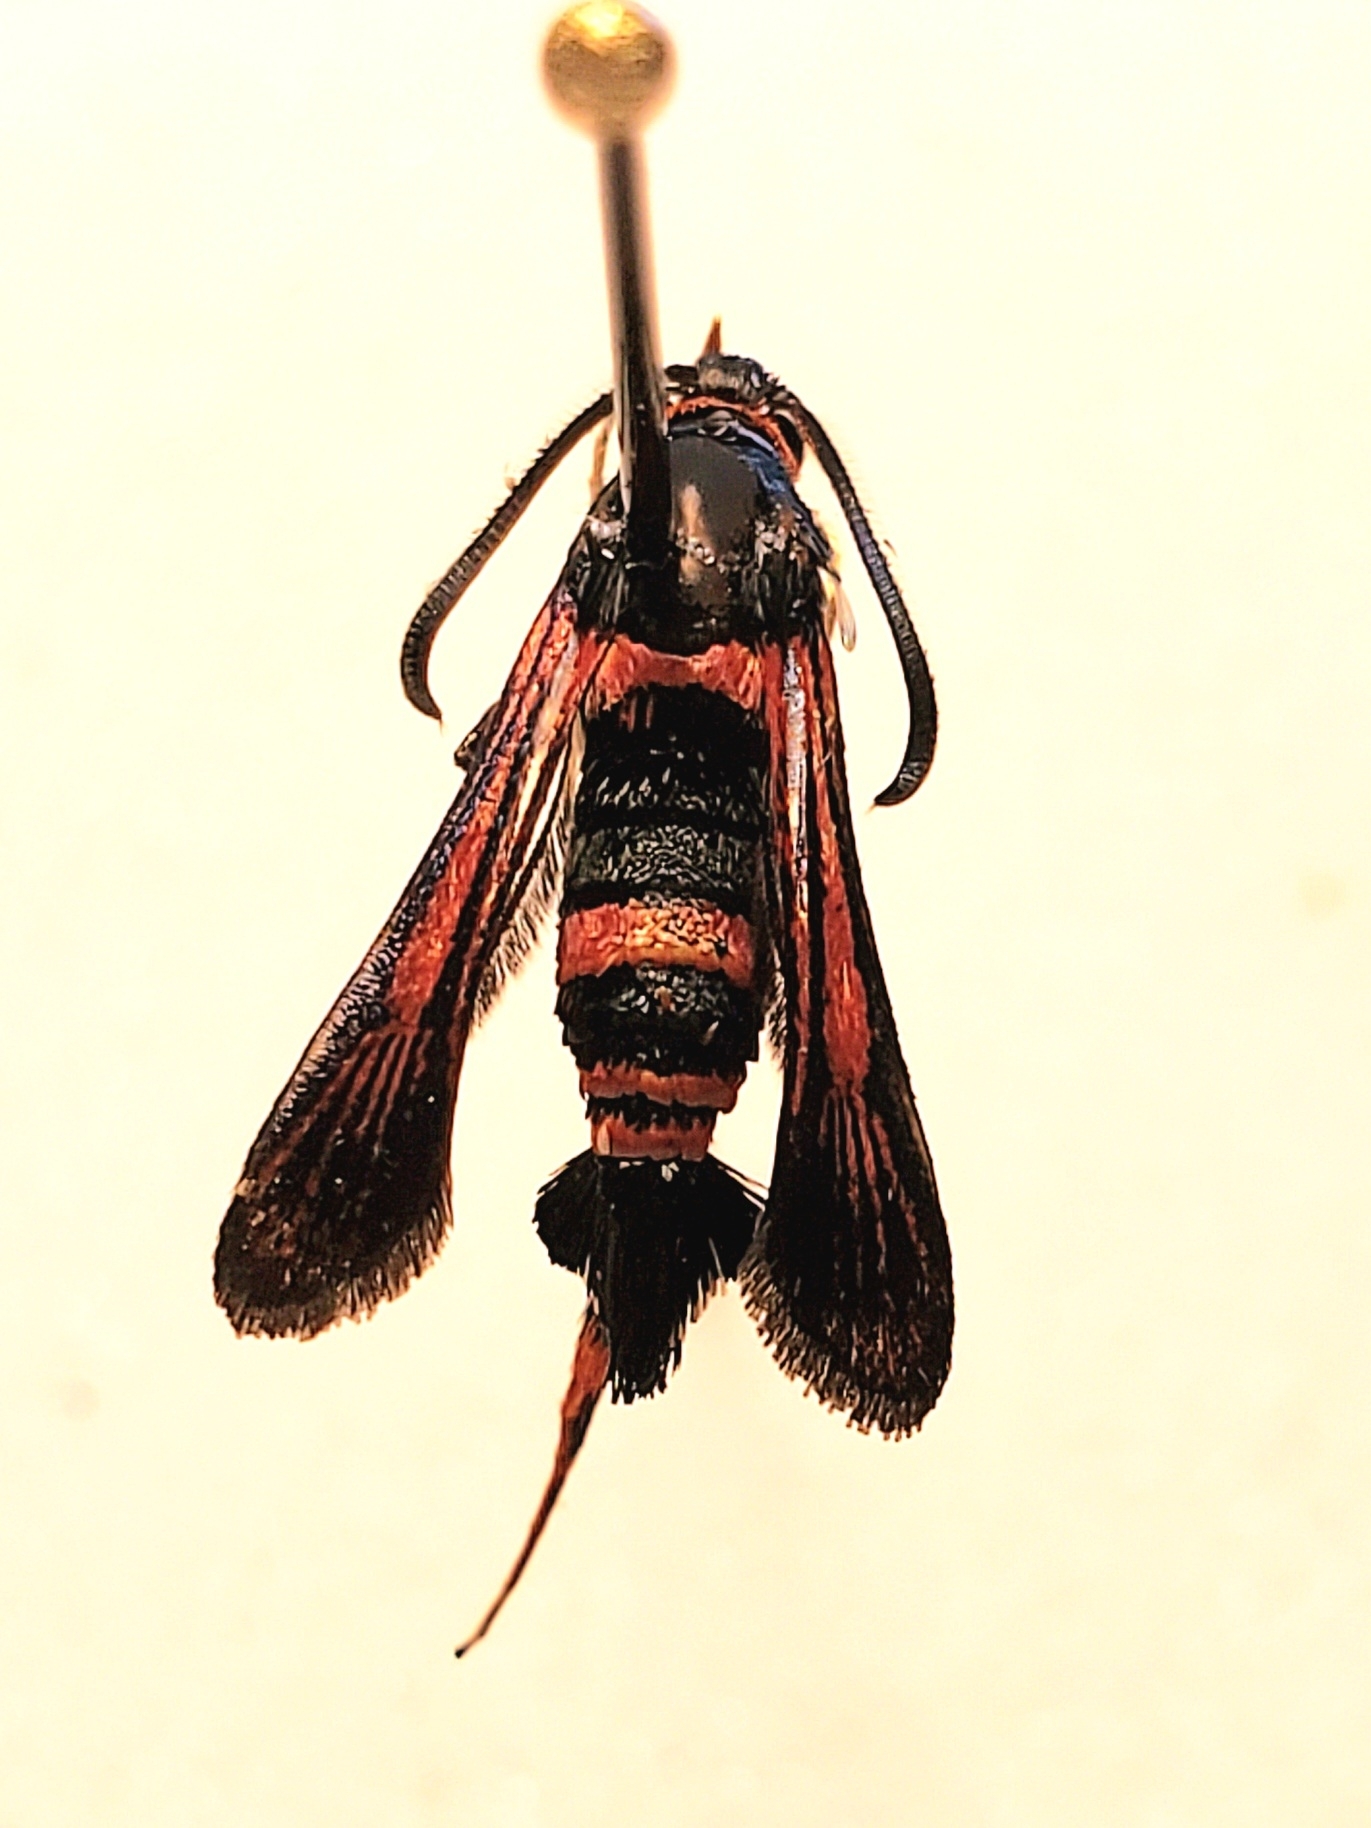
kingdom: Animalia
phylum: Arthropoda
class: Insecta
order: Lepidoptera
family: Sesiidae
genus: Synanthedon
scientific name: Synanthedon sapygaeformis
